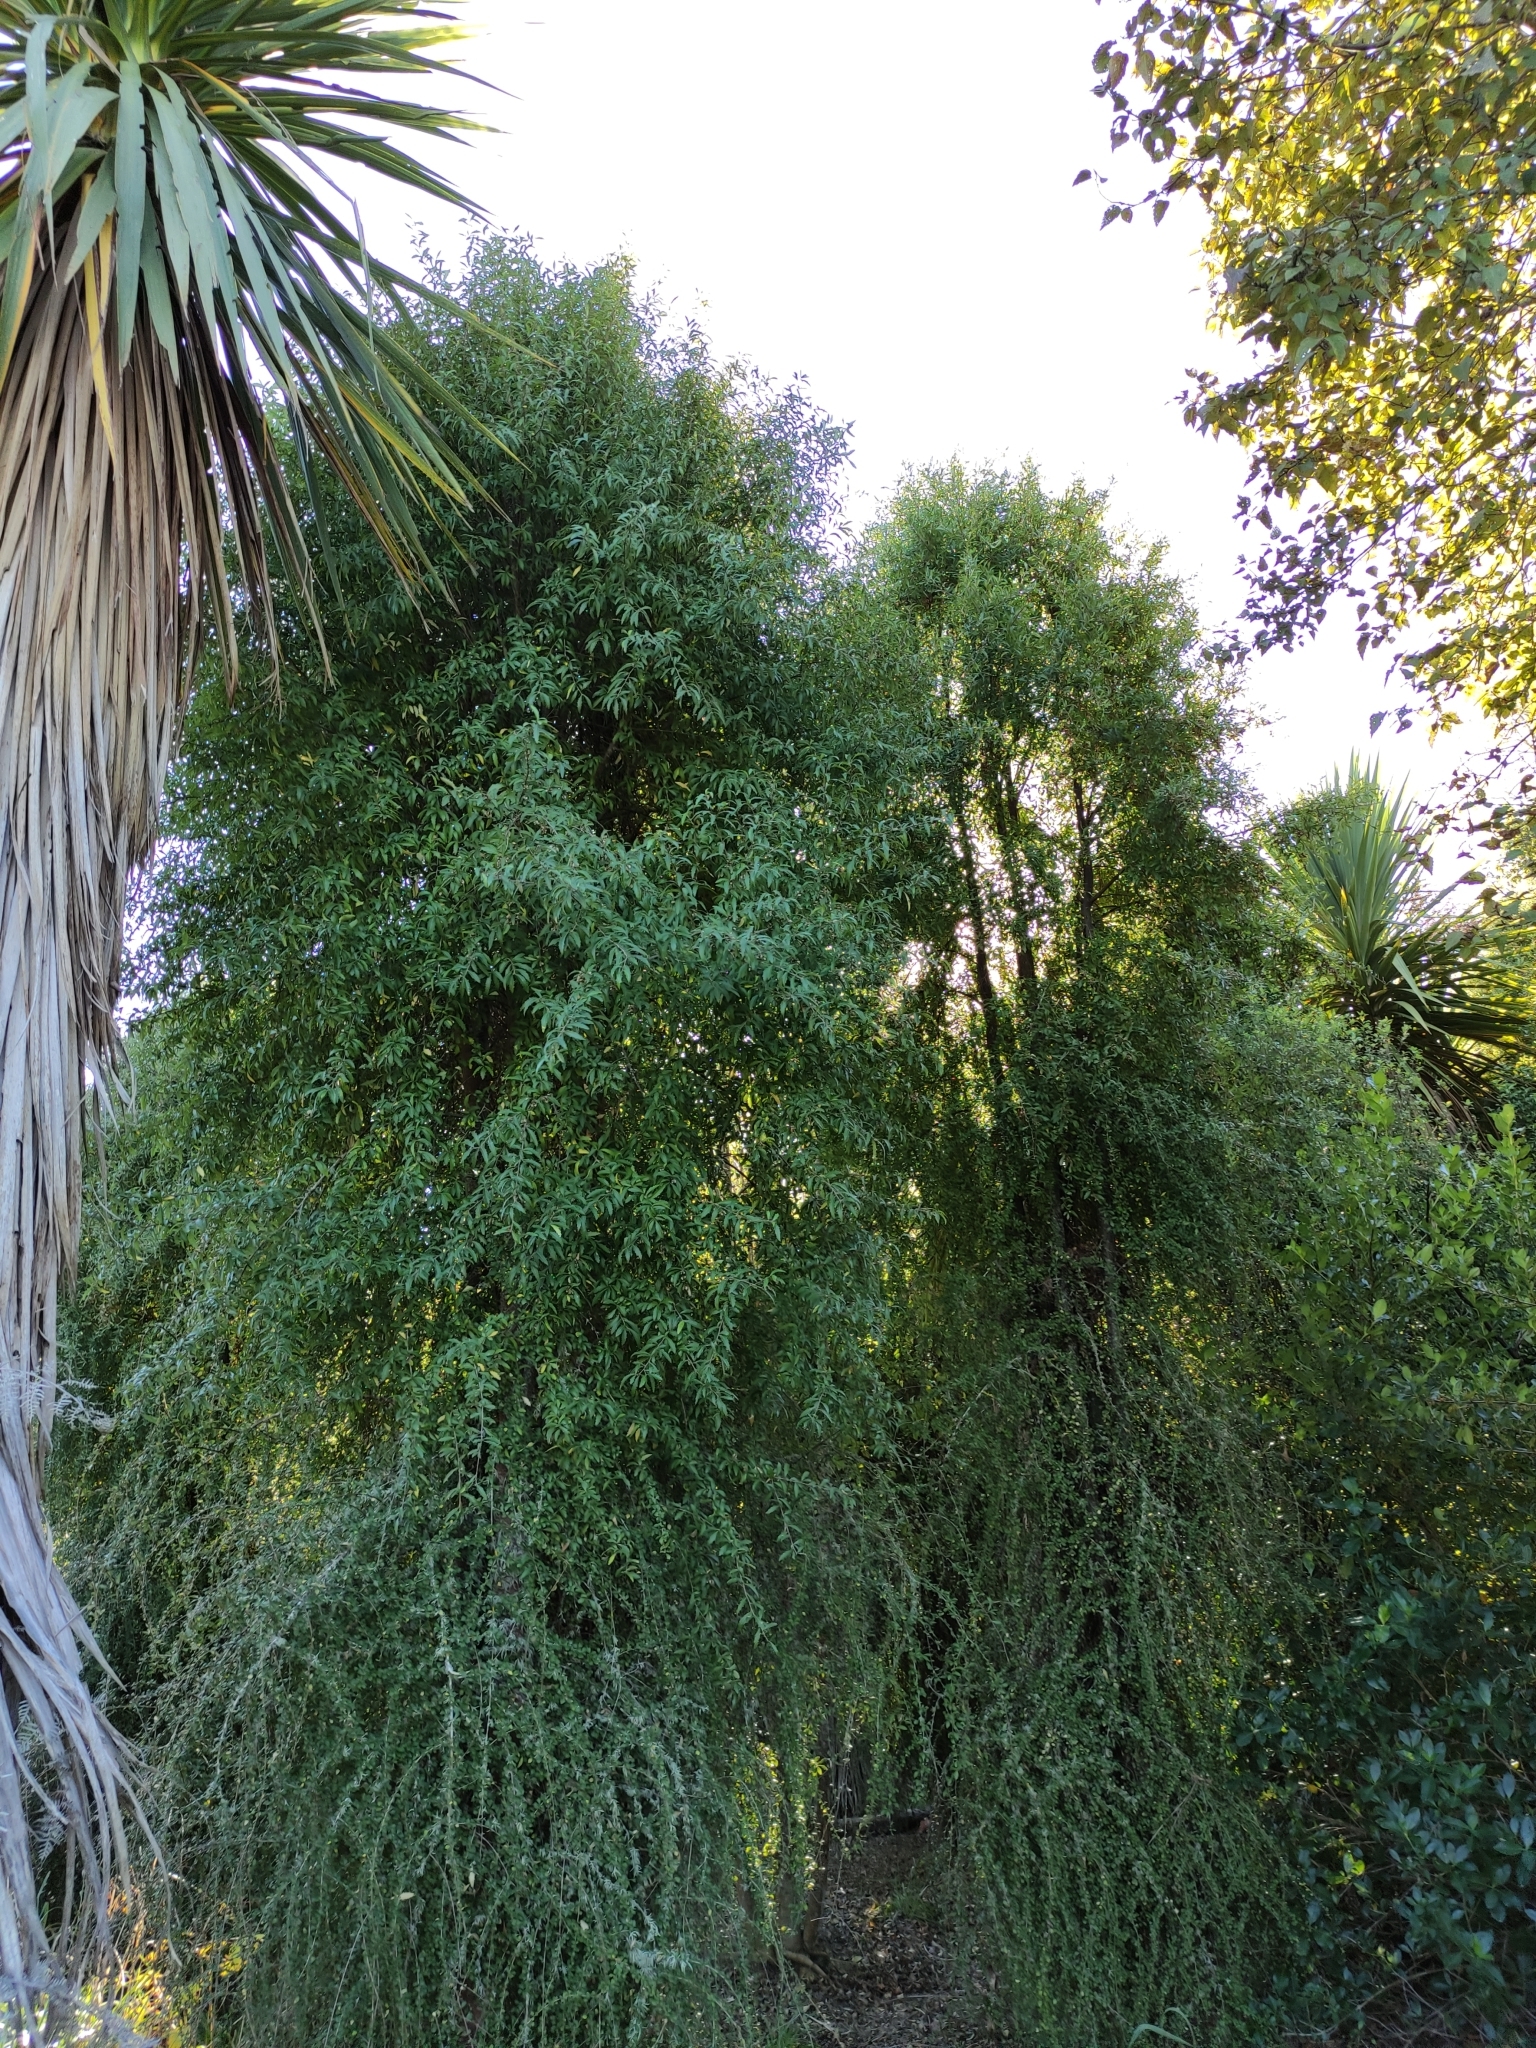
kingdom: Plantae
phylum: Tracheophyta
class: Magnoliopsida
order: Malvales
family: Malvaceae
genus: Hoheria
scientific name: Hoheria angustifolia
